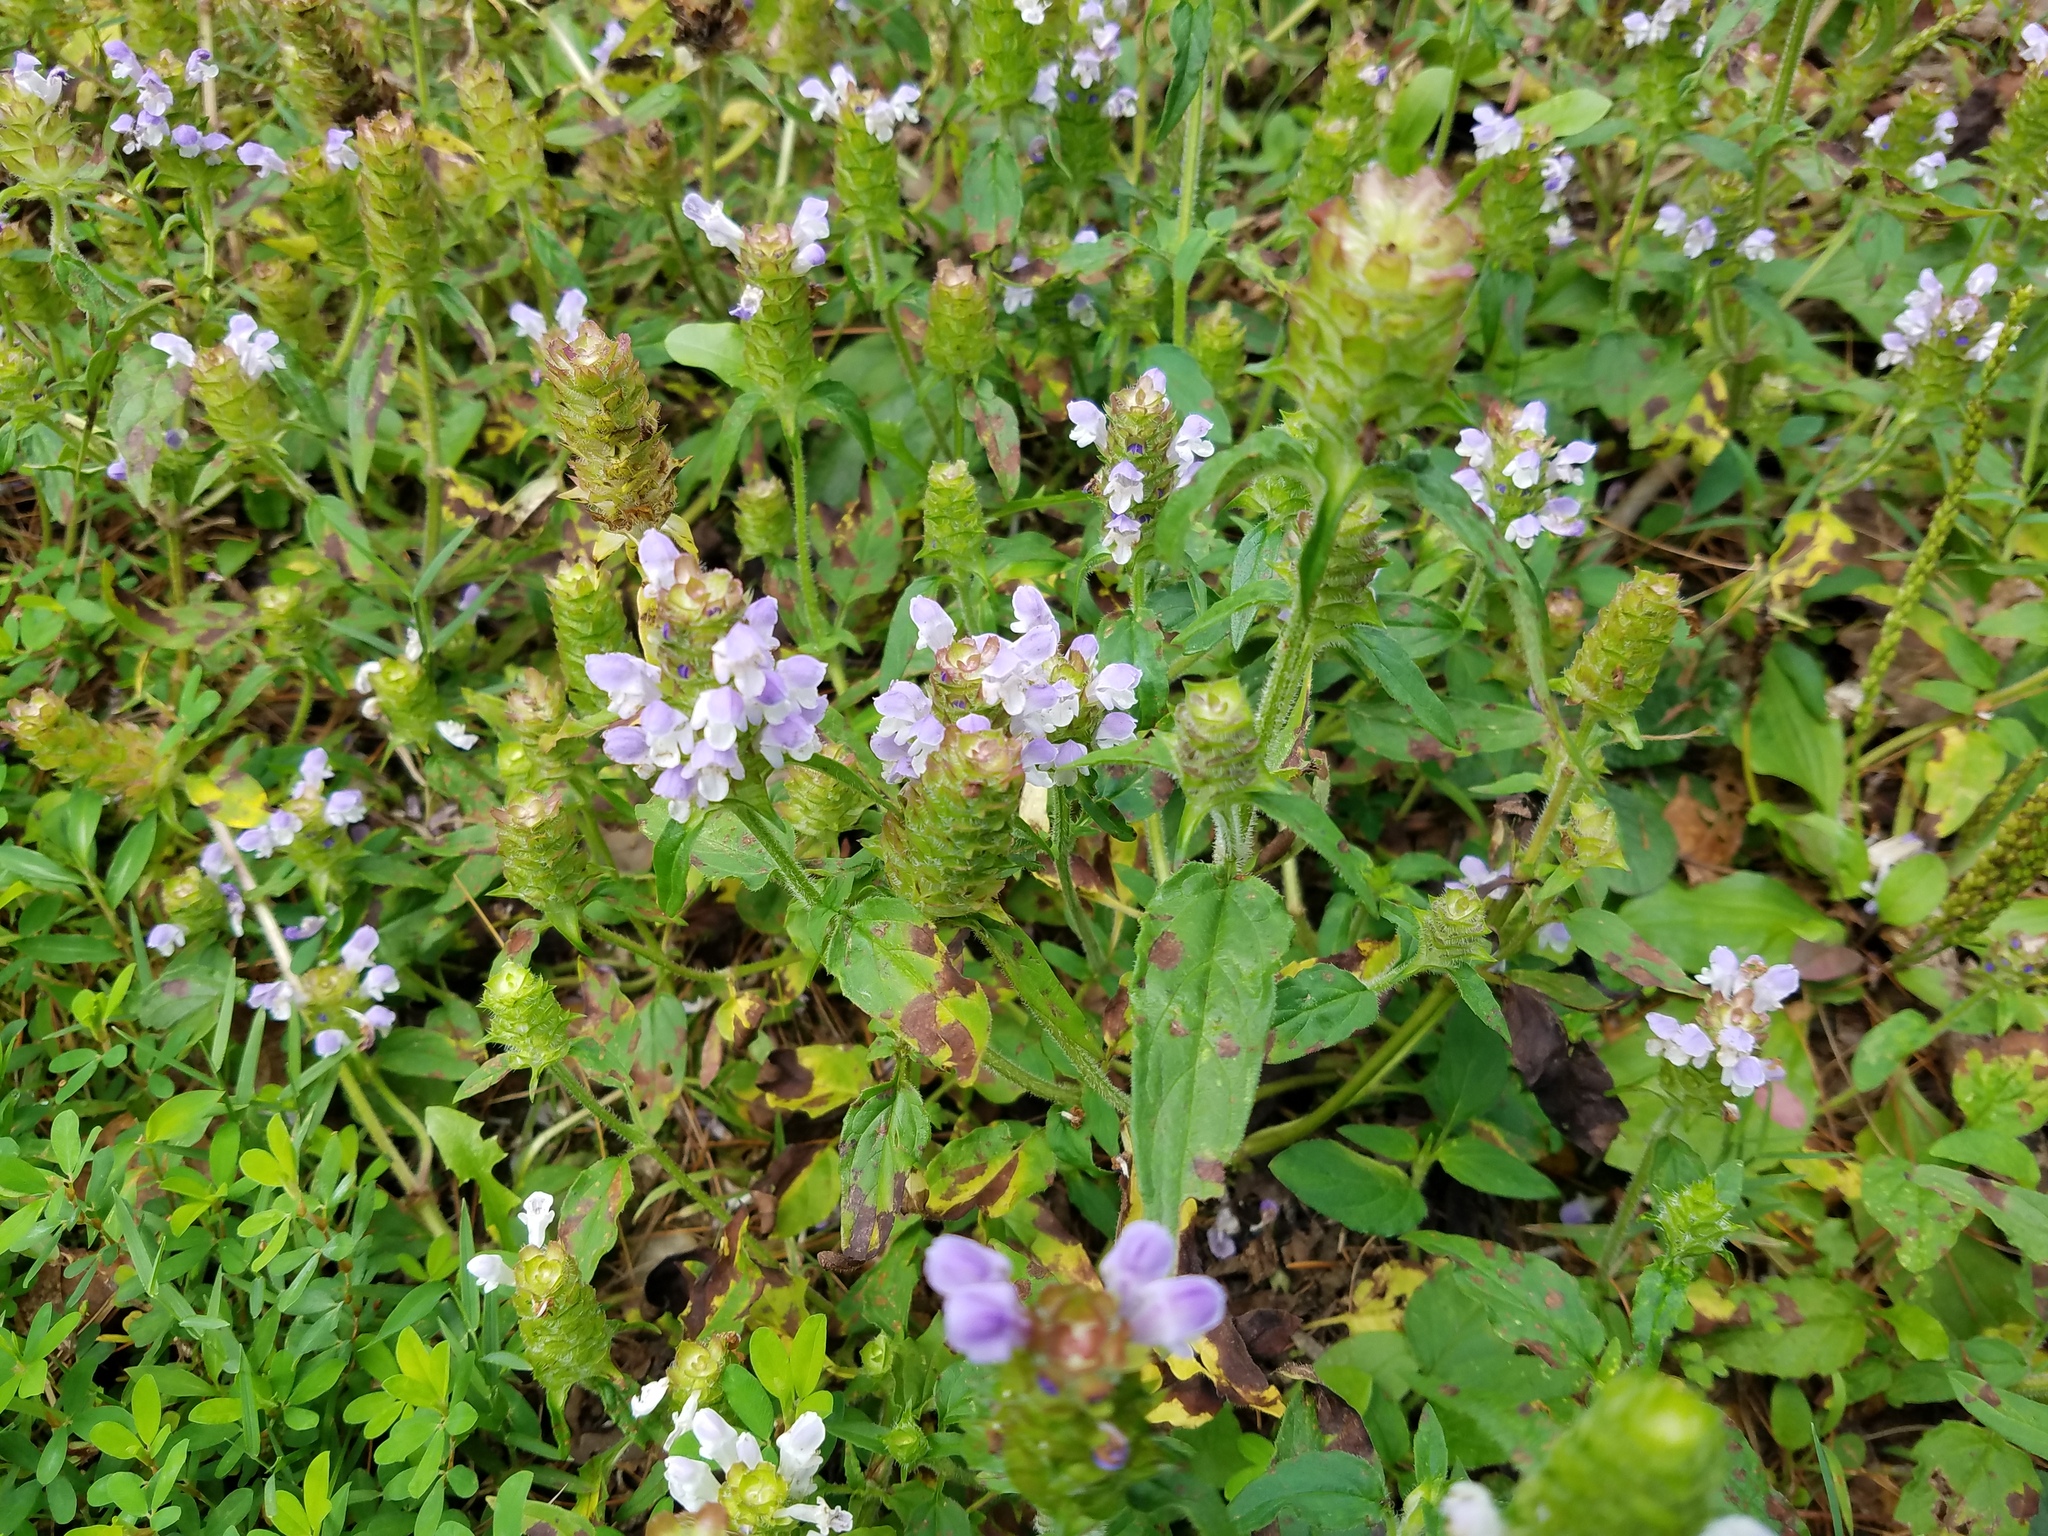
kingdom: Plantae
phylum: Tracheophyta
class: Magnoliopsida
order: Lamiales
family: Lamiaceae
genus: Prunella
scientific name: Prunella vulgaris
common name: Heal-all
